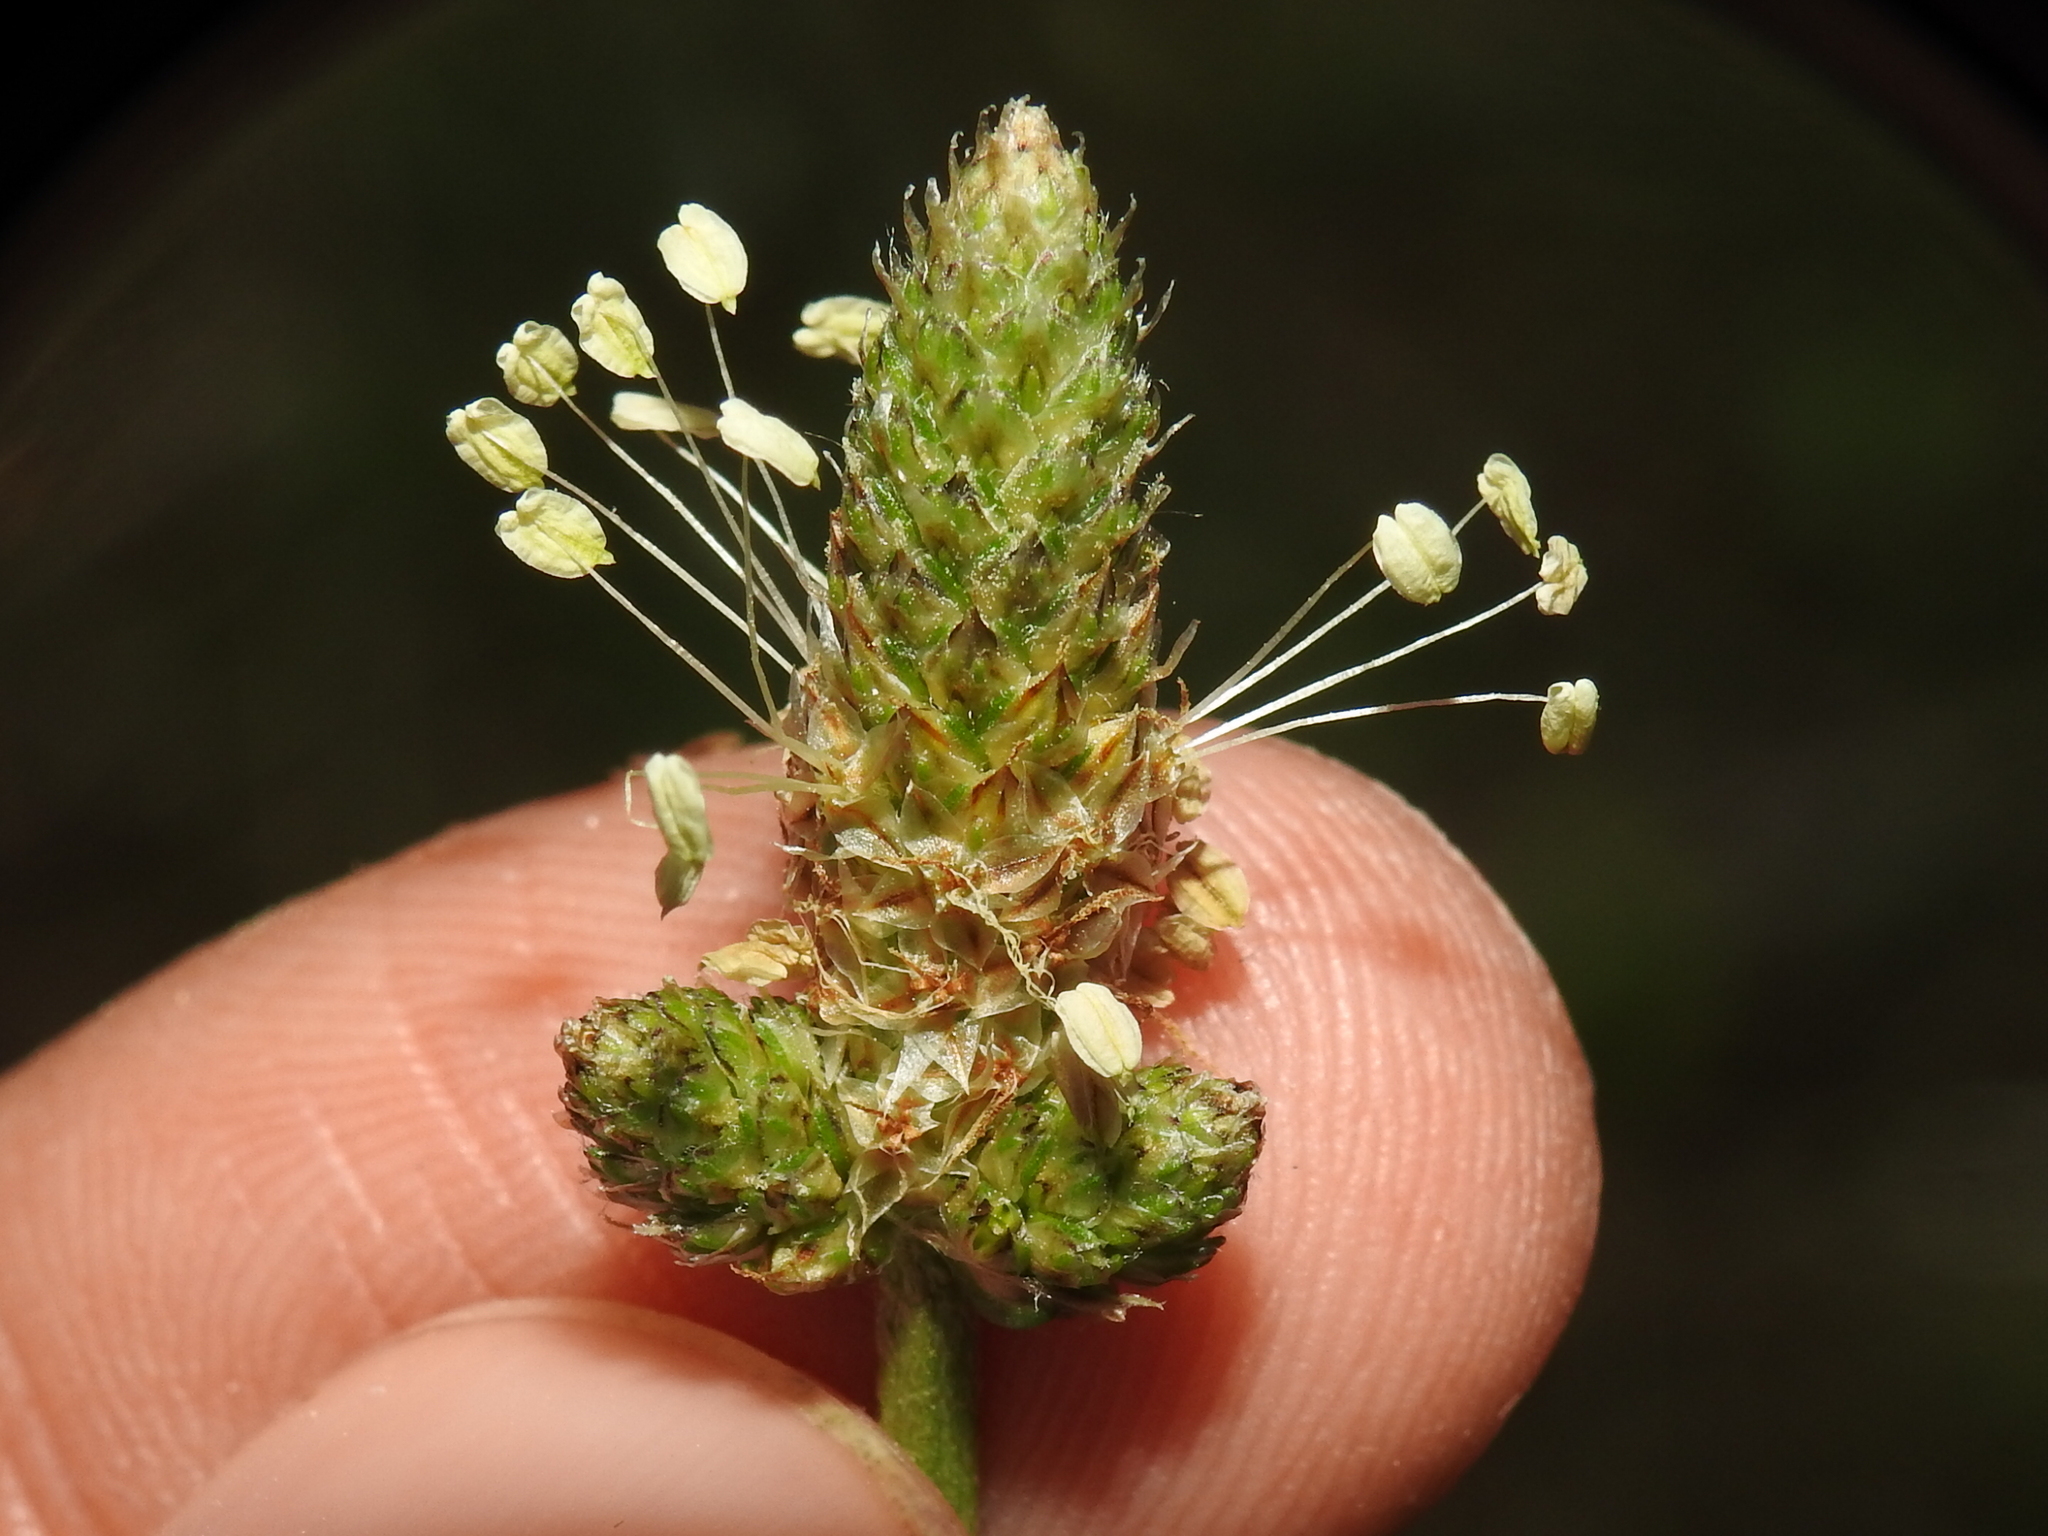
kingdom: Plantae
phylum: Tracheophyta
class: Magnoliopsida
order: Lamiales
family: Plantaginaceae
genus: Plantago
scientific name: Plantago lanceolata
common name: Ribwort plantain
